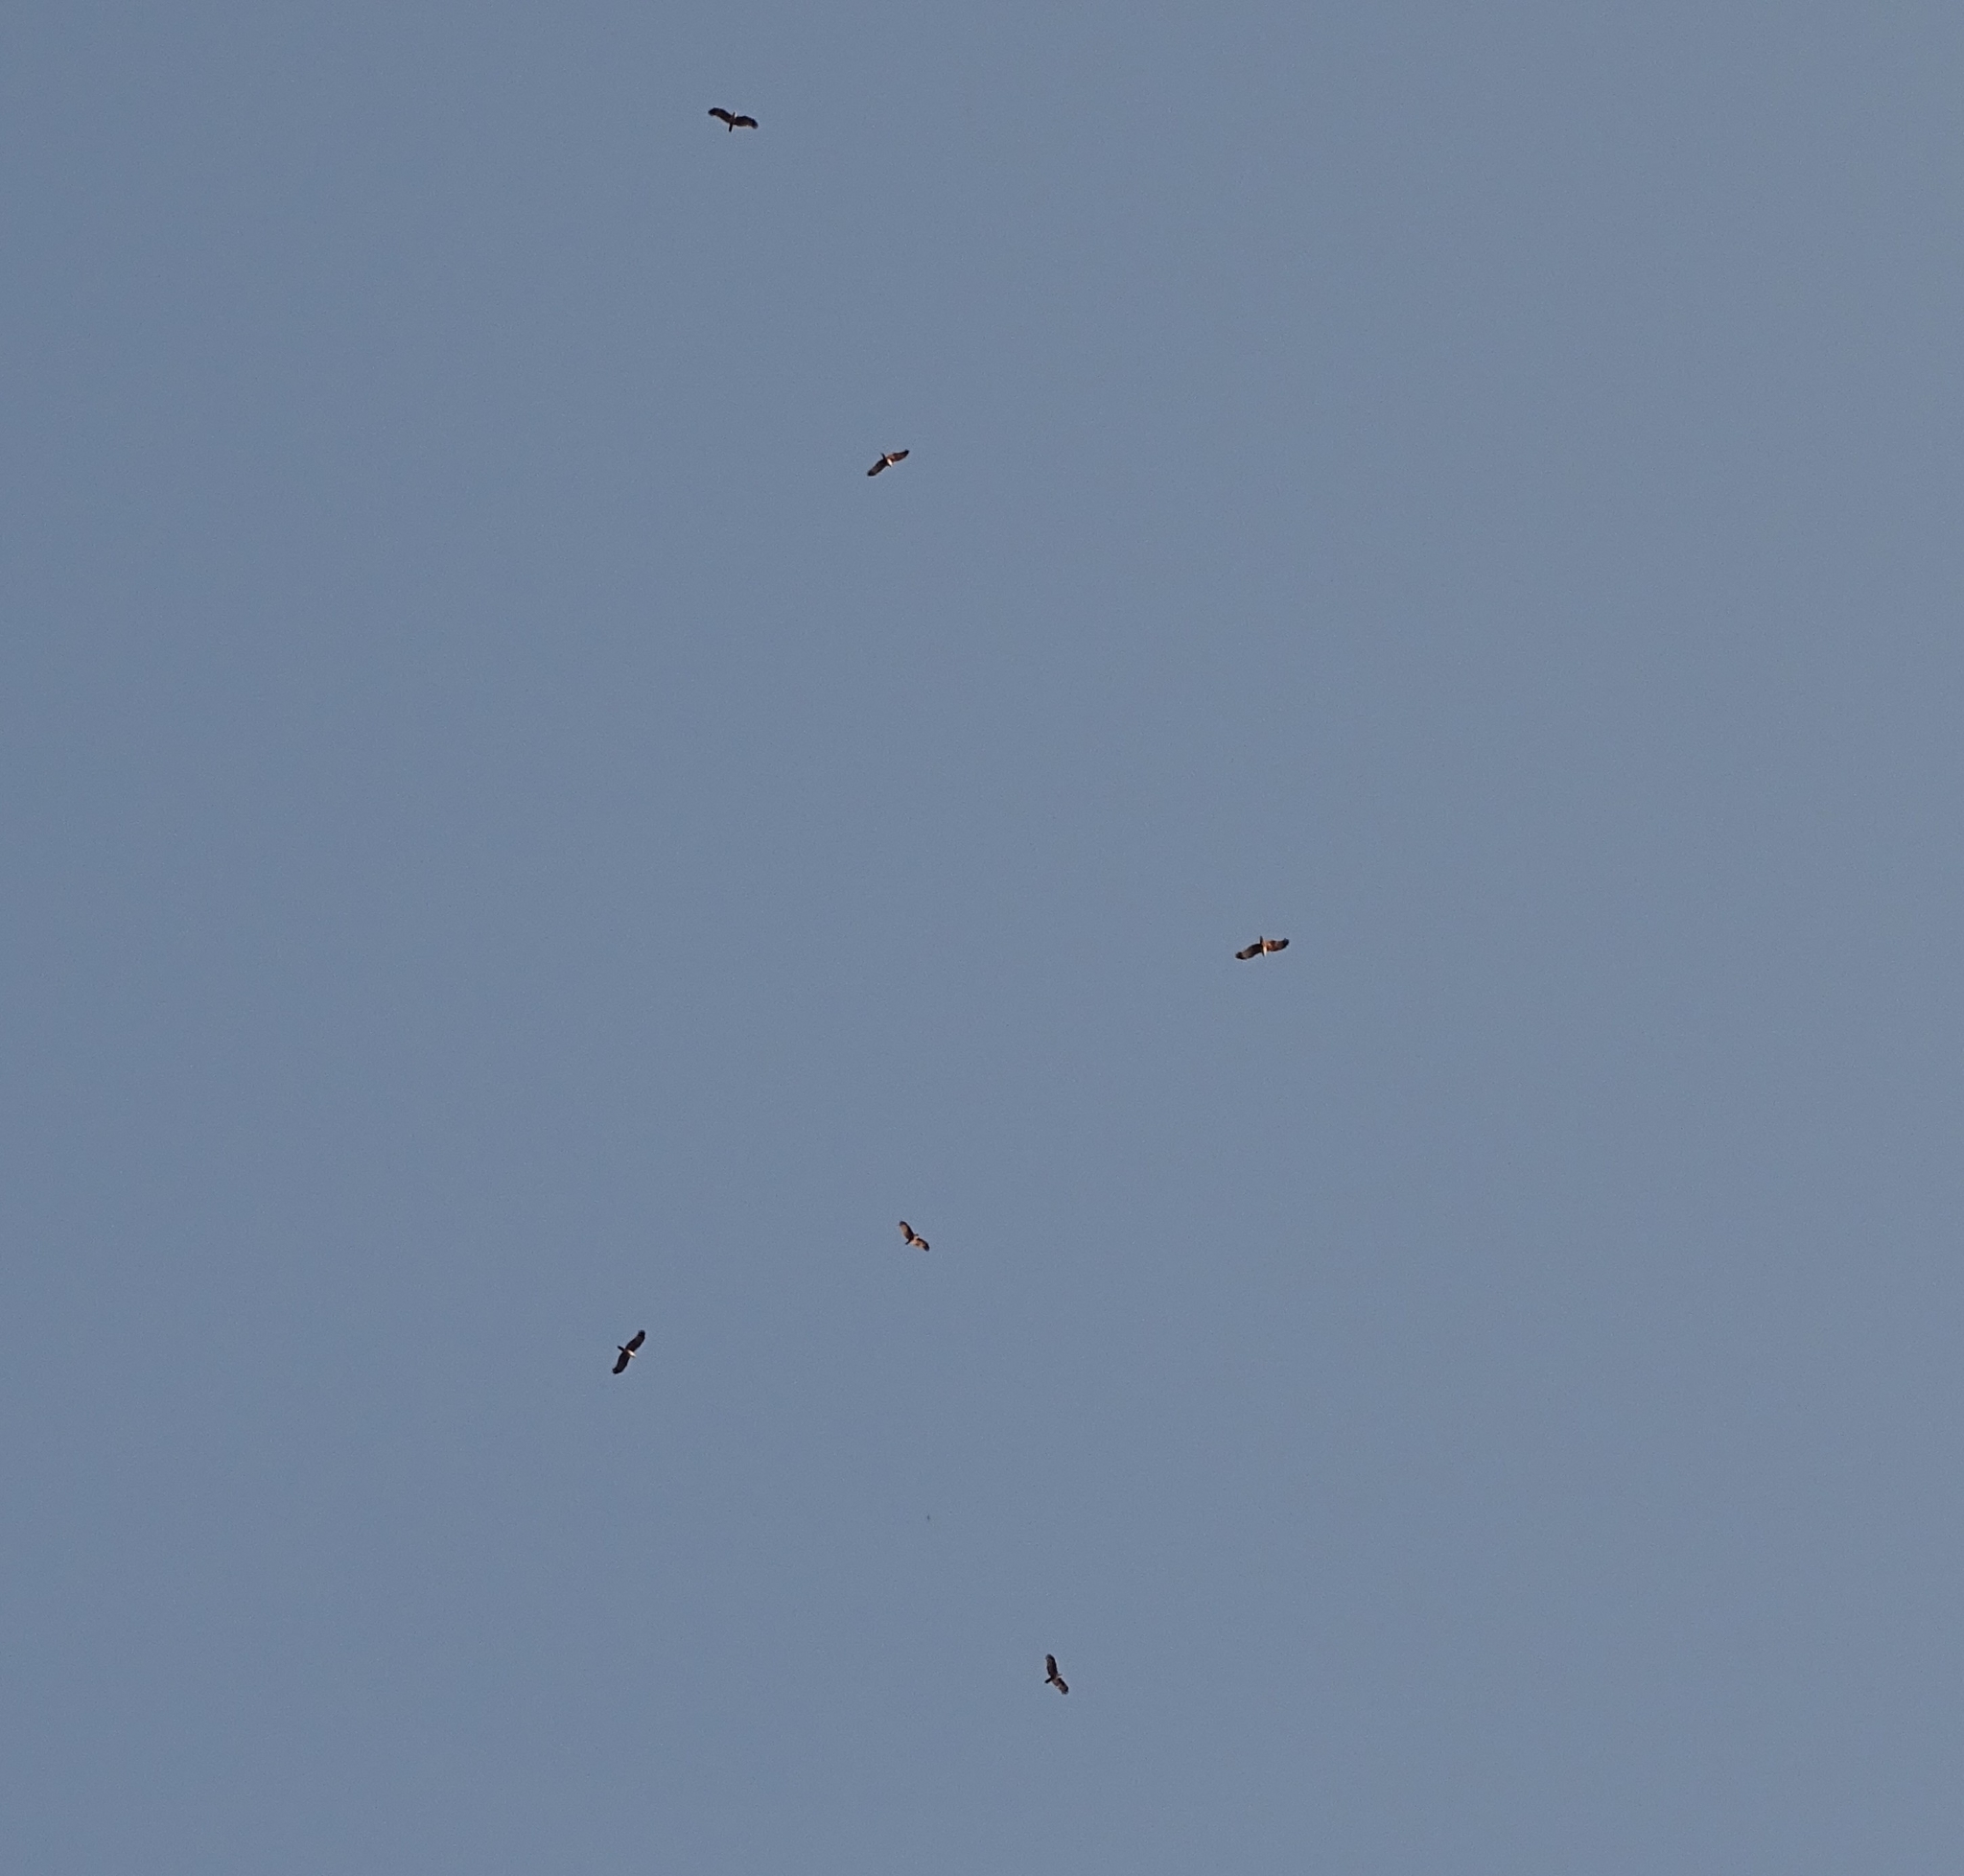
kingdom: Animalia
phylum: Chordata
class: Aves
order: Accipitriformes
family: Accipitridae
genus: Haliastur
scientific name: Haliastur indus
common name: Brahminy kite
